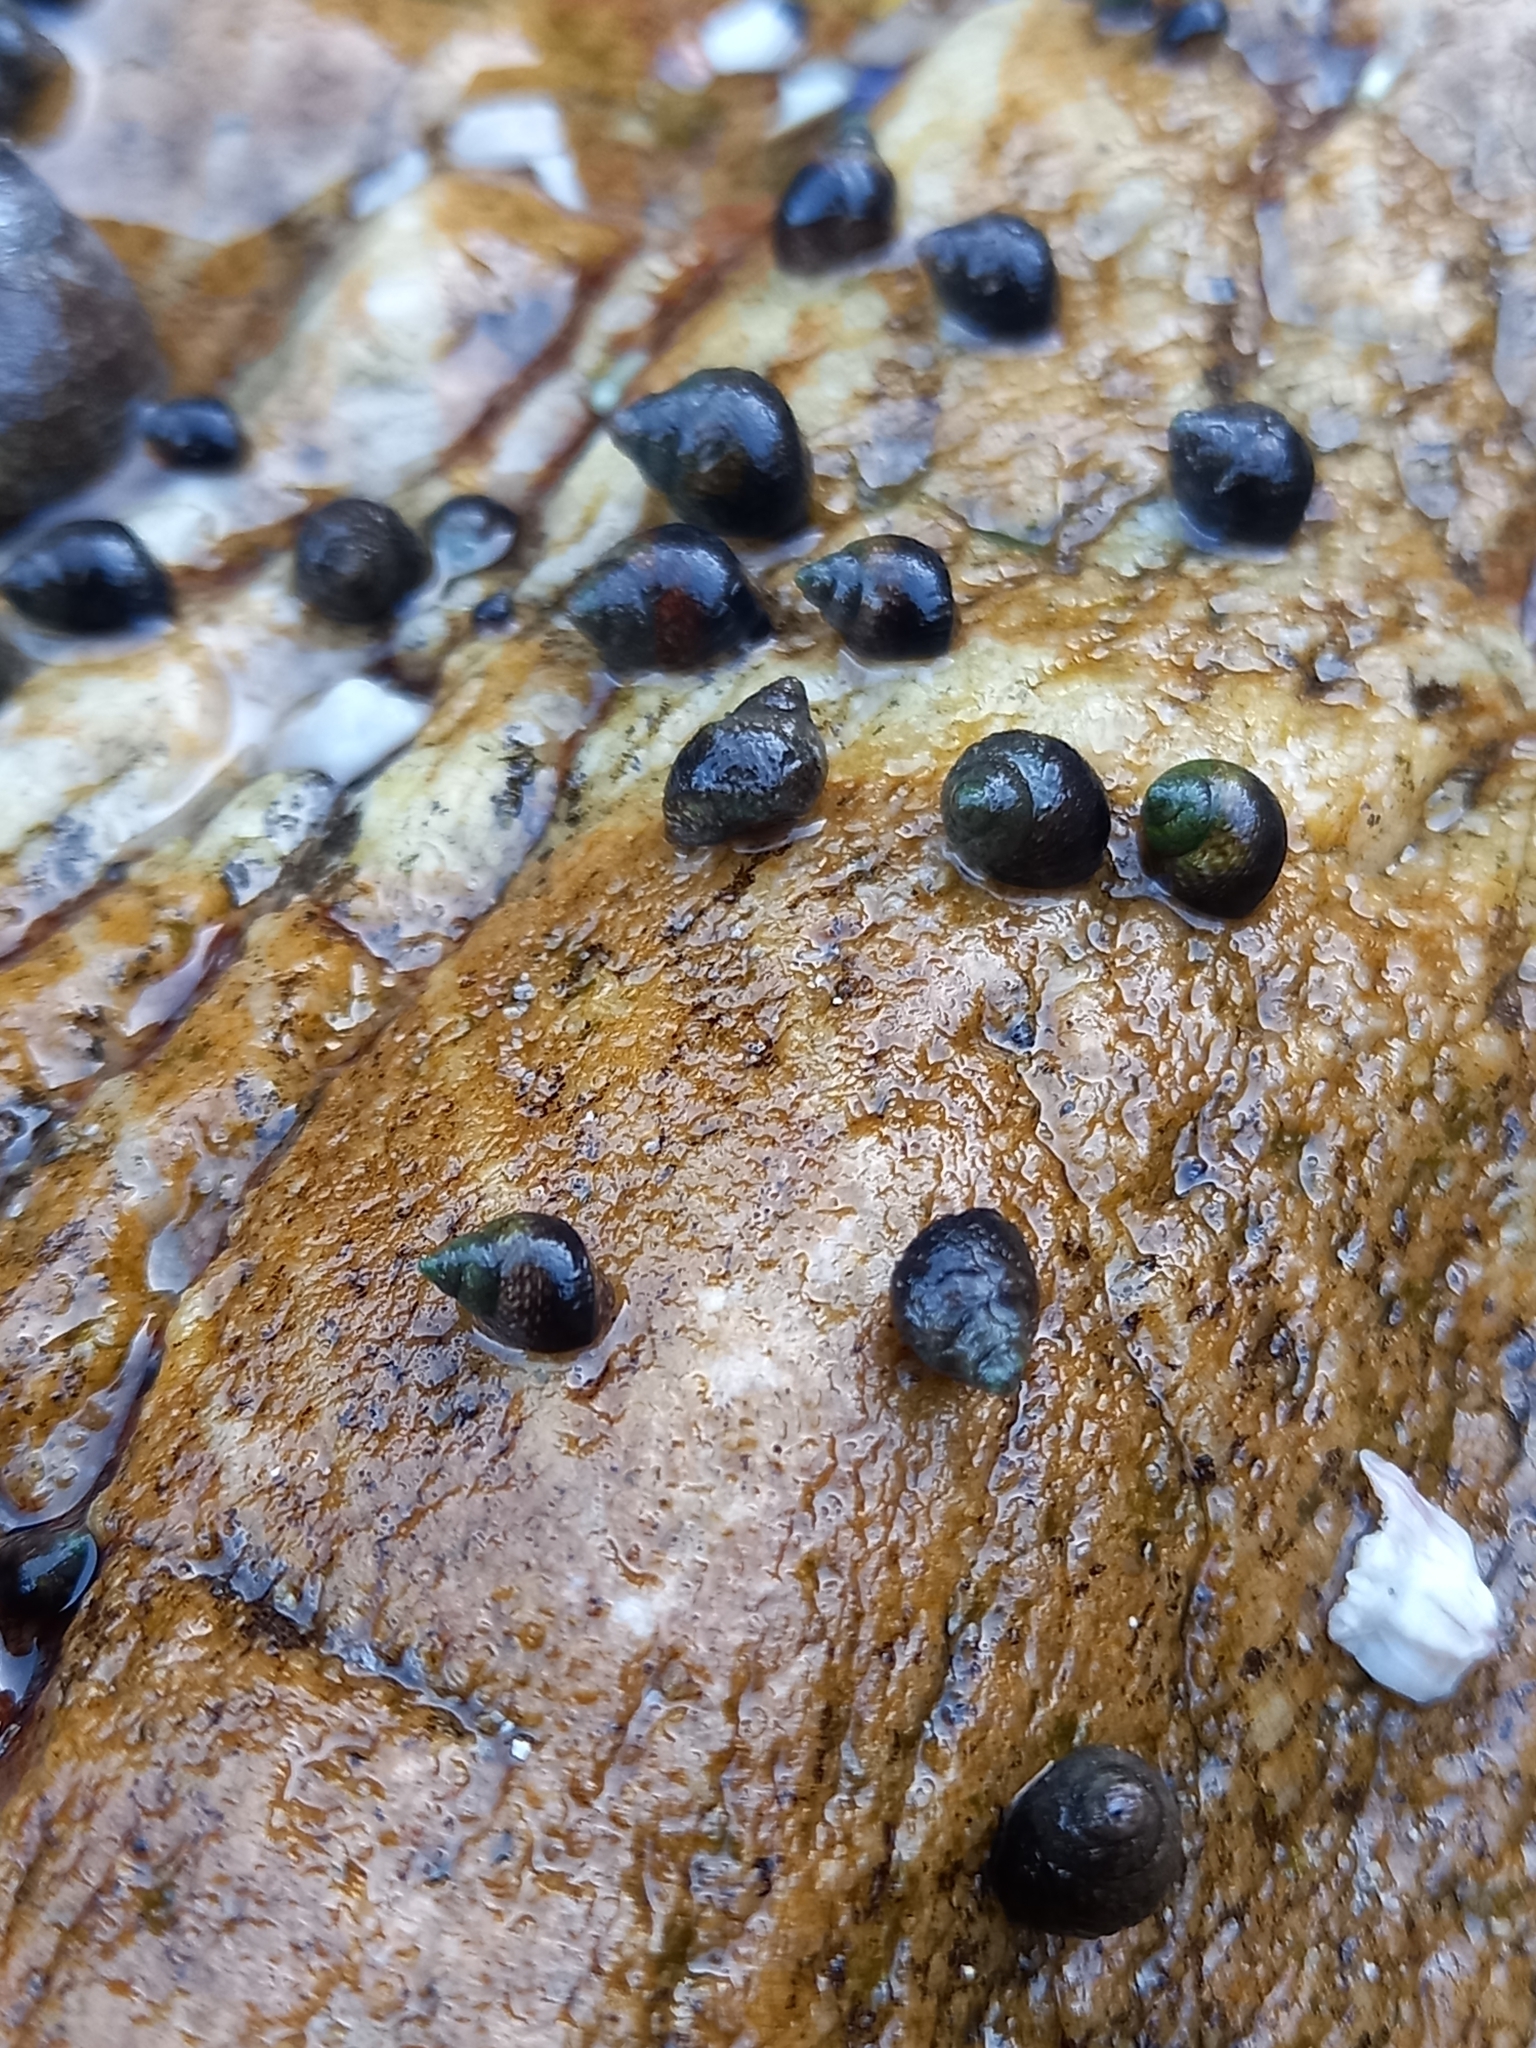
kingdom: Animalia
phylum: Mollusca
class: Gastropoda
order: Littorinimorpha
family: Littorinidae
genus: Afrolittorina
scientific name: Afrolittorina knysnaensis
